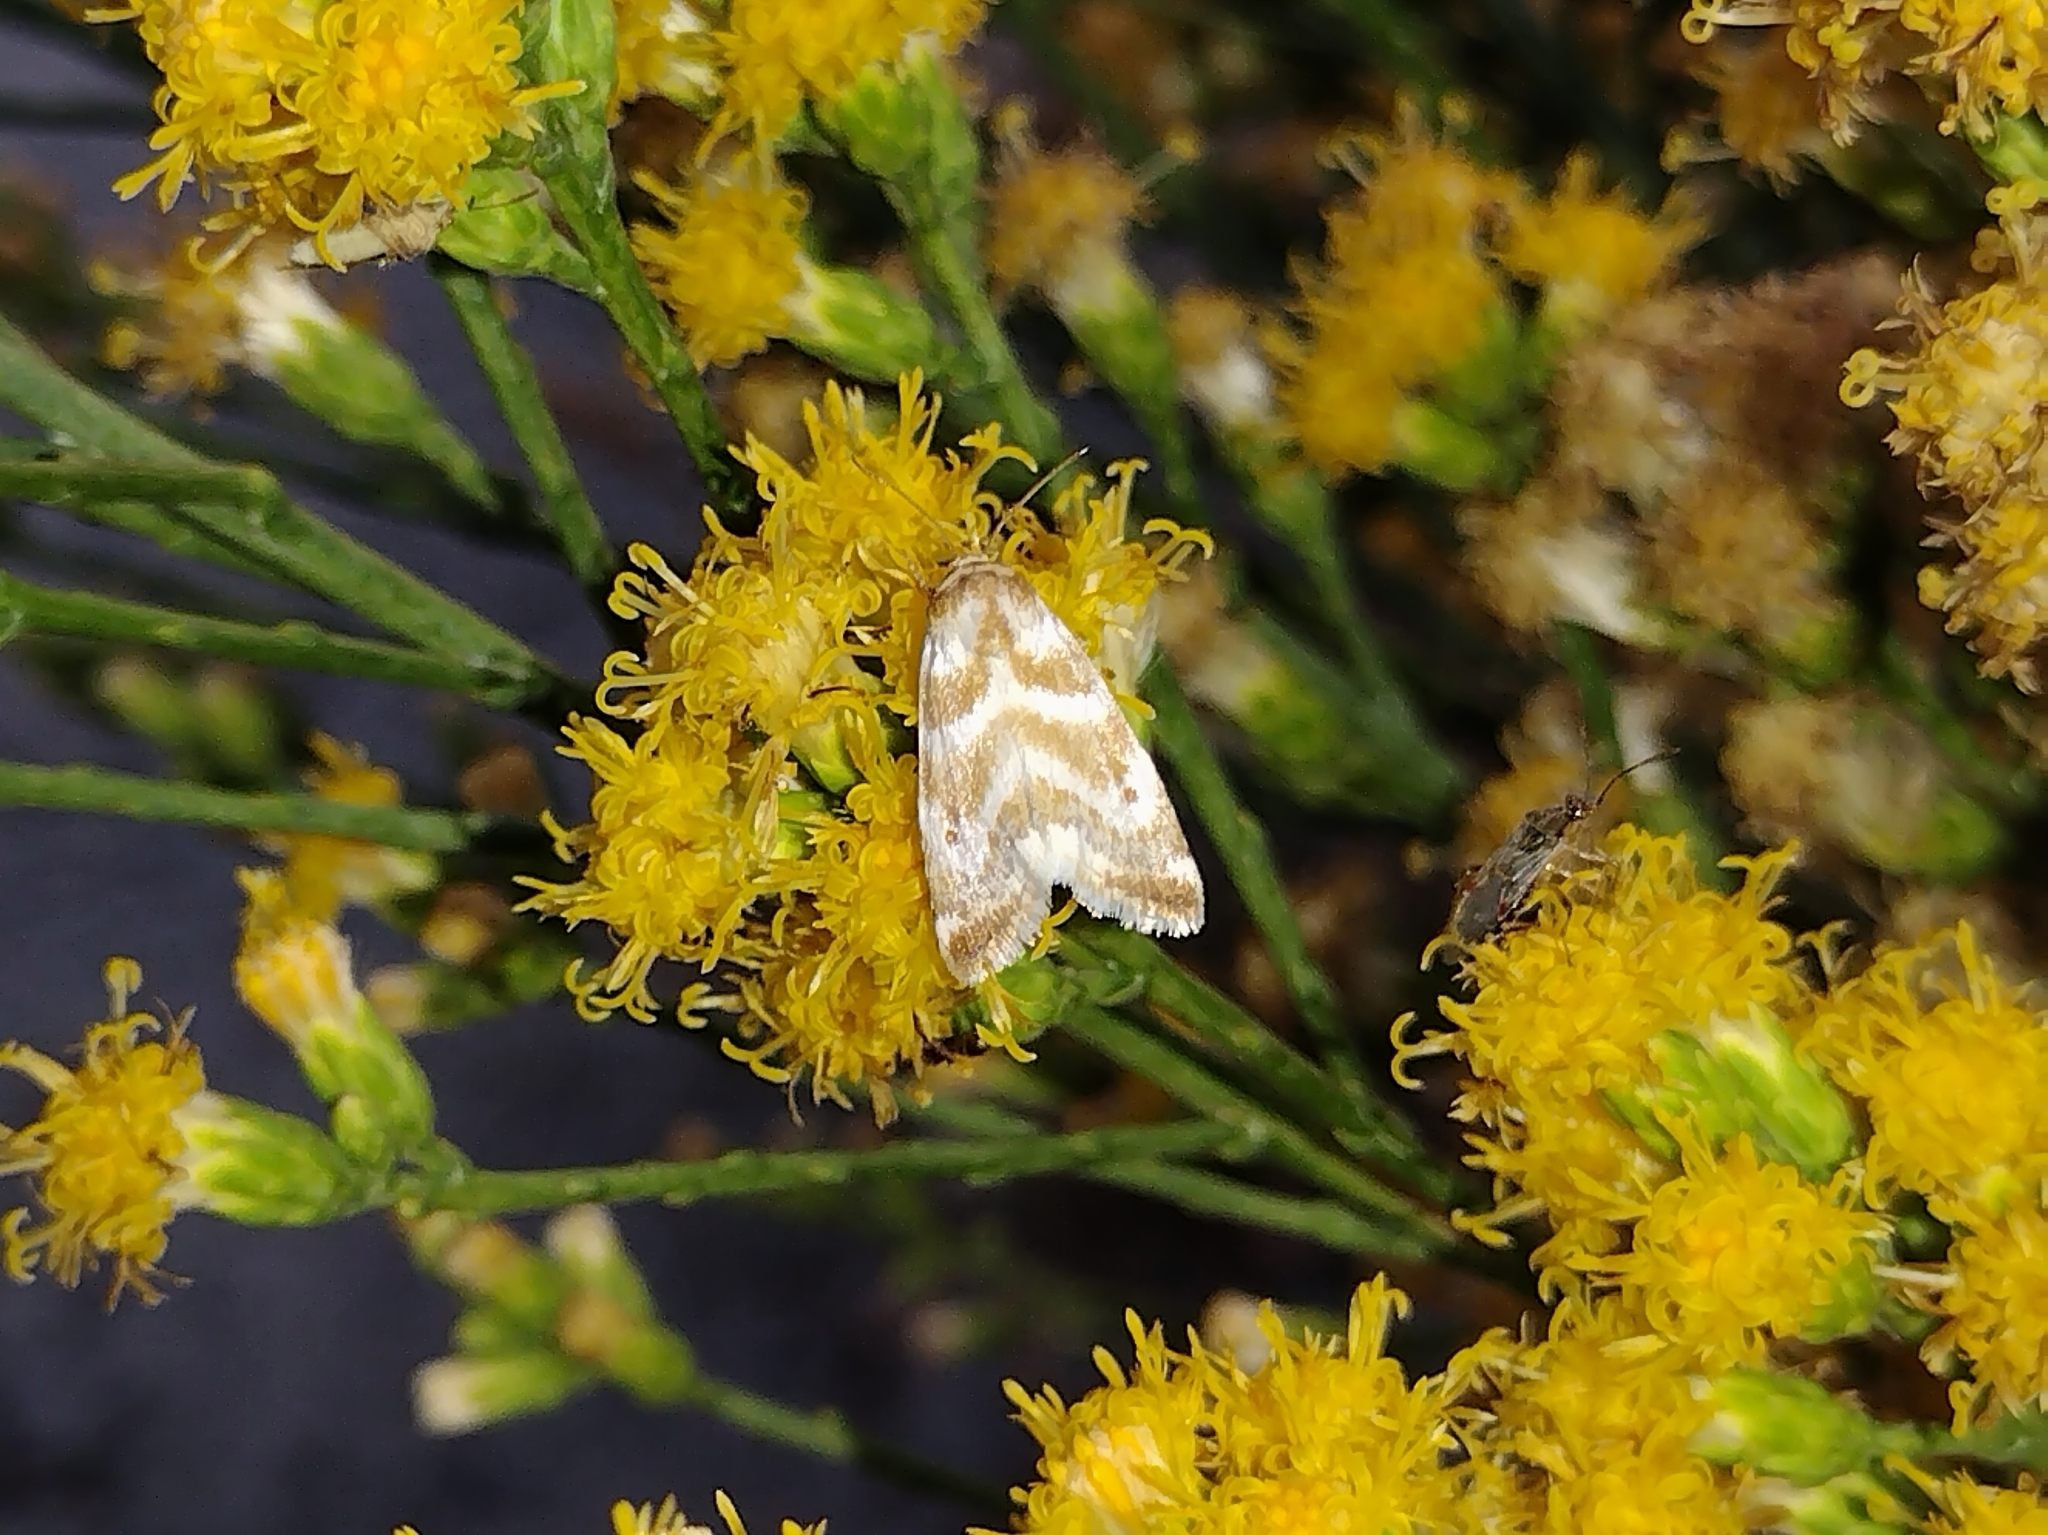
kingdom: Animalia
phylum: Arthropoda
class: Insecta
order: Lepidoptera
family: Noctuidae
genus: Schinia
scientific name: Schinia velaris
